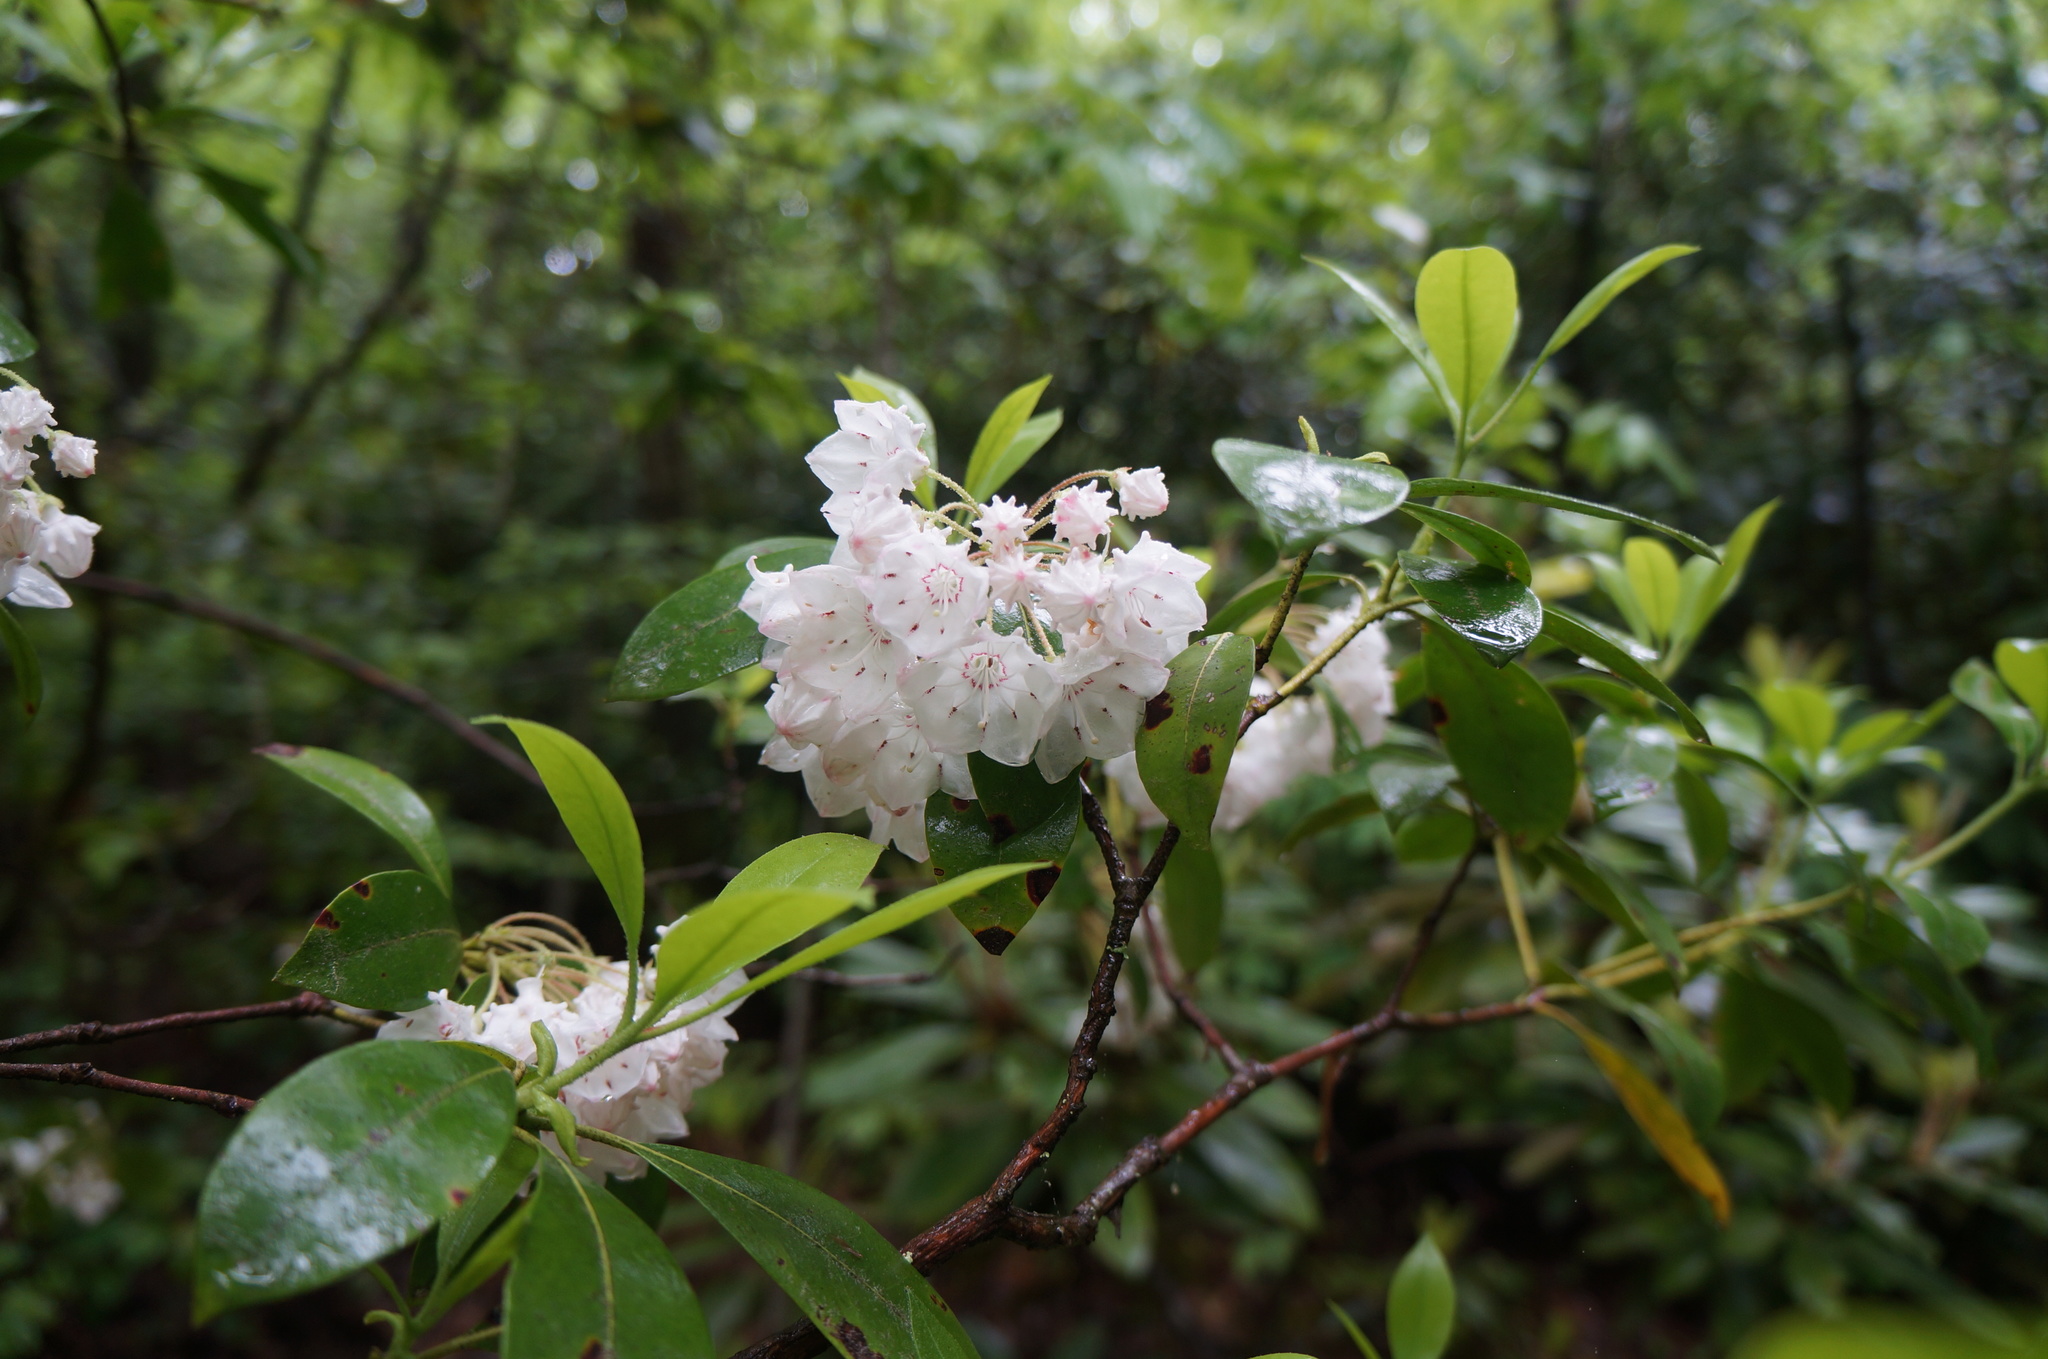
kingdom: Plantae
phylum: Tracheophyta
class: Magnoliopsida
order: Ericales
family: Ericaceae
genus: Kalmia
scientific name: Kalmia latifolia
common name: Mountain-laurel
